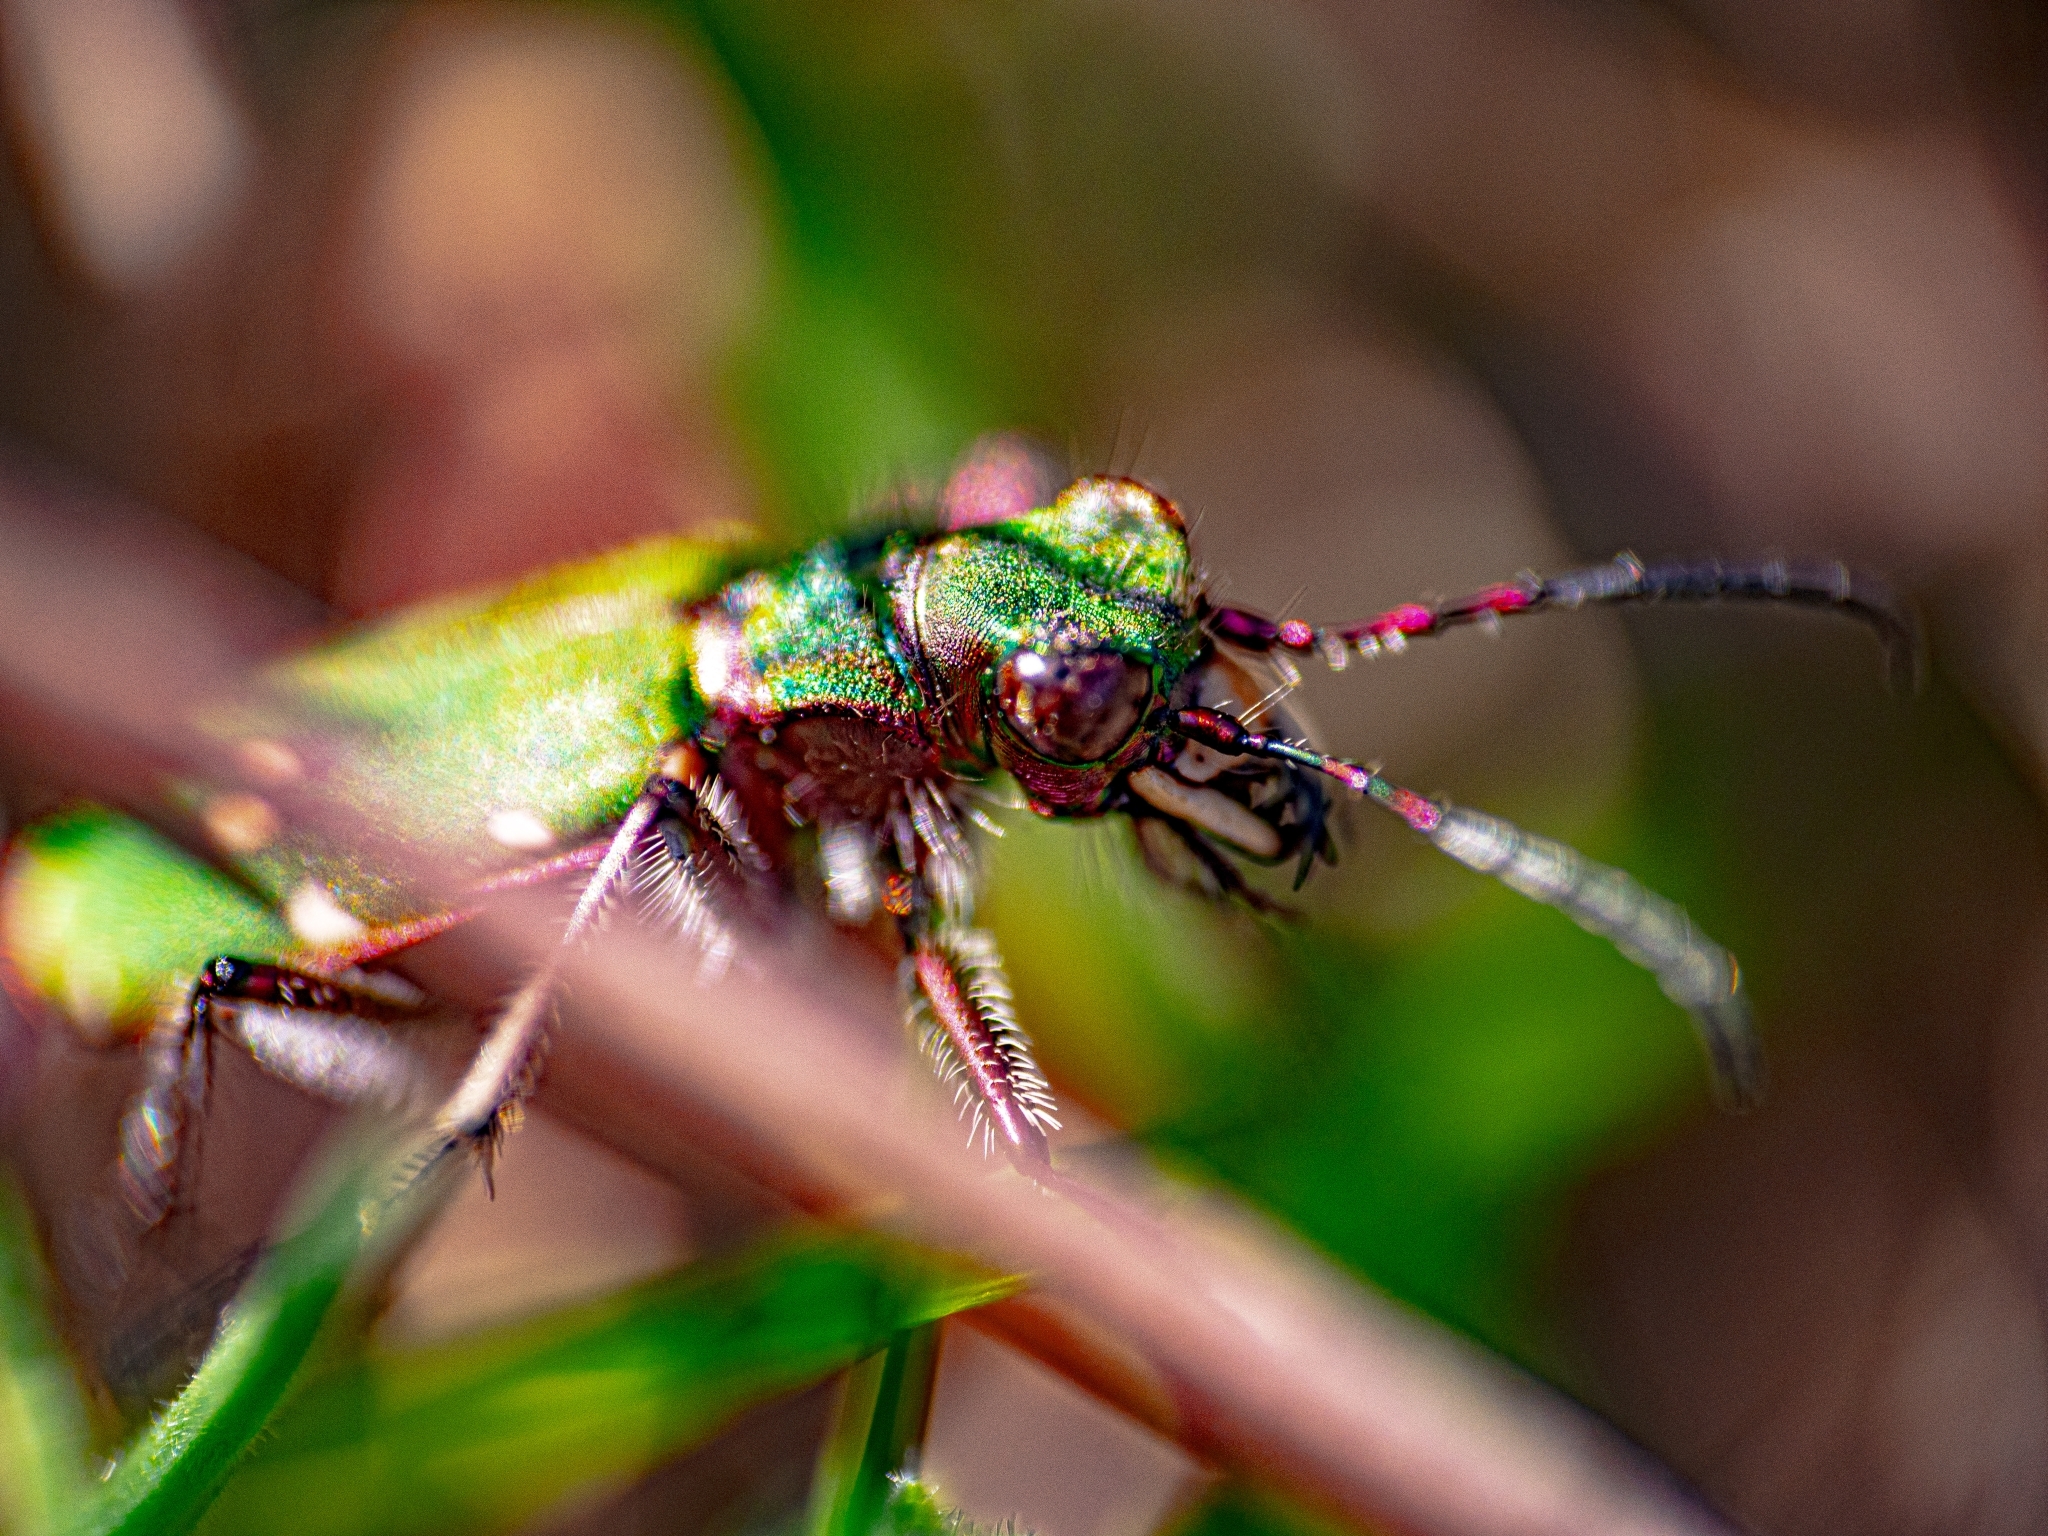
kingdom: Animalia
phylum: Arthropoda
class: Insecta
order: Coleoptera
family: Carabidae
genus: Cicindela
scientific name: Cicindela campestris
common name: Common tiger beetle
